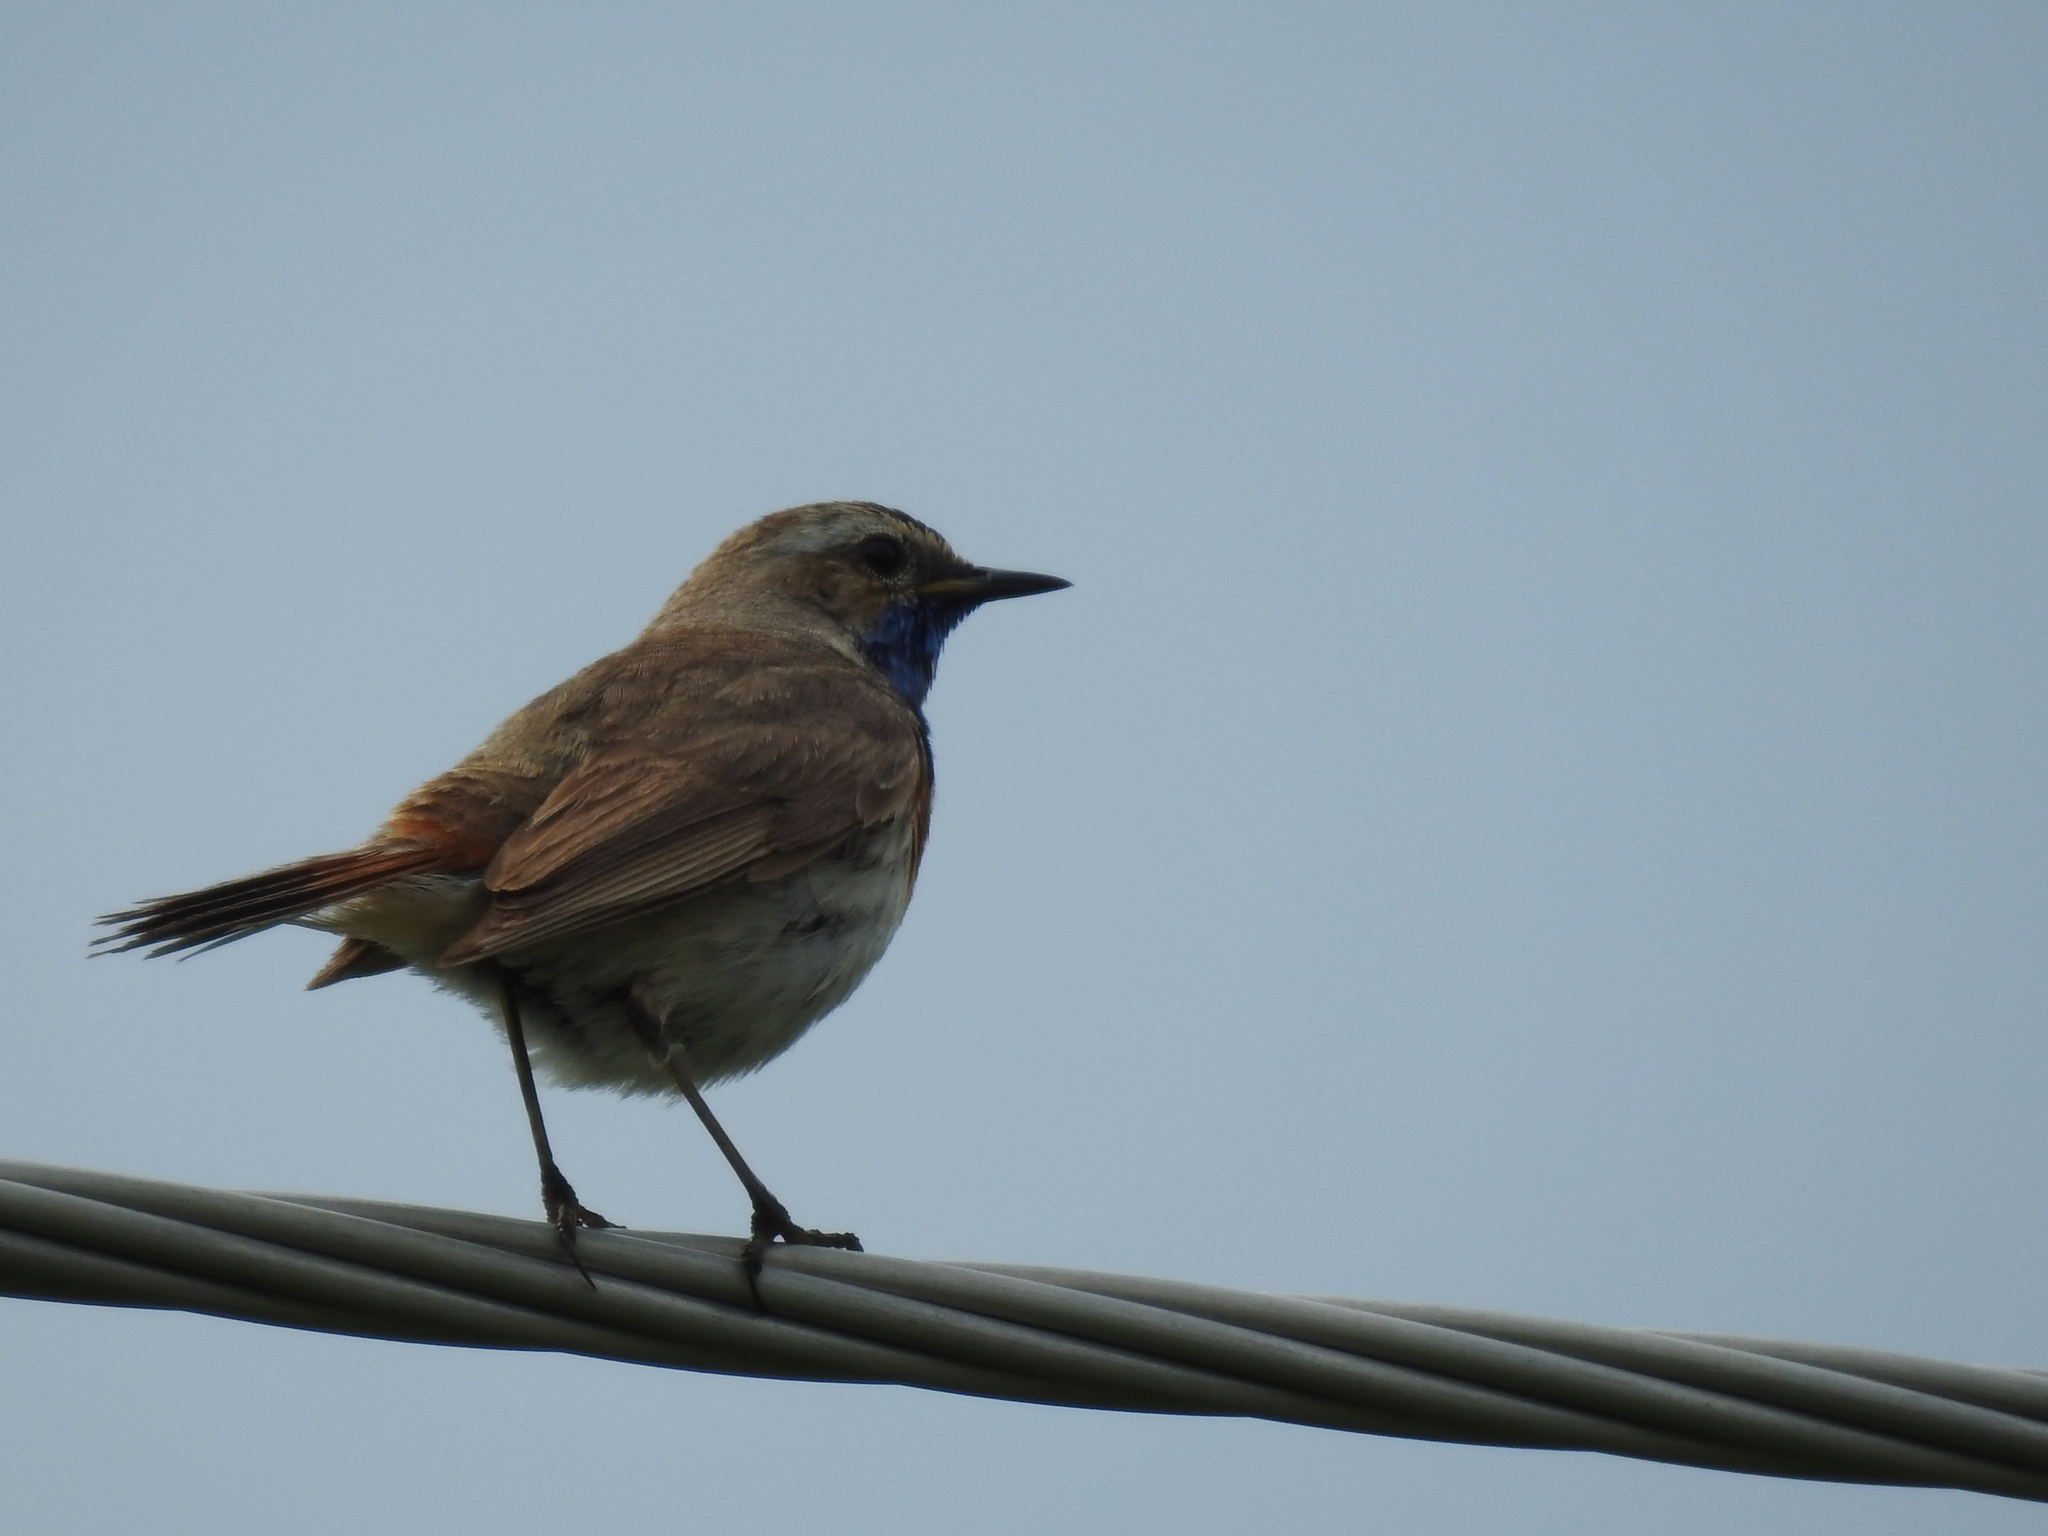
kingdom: Animalia
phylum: Chordata
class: Aves
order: Passeriformes
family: Muscicapidae
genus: Luscinia
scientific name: Luscinia svecica
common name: Bluethroat
